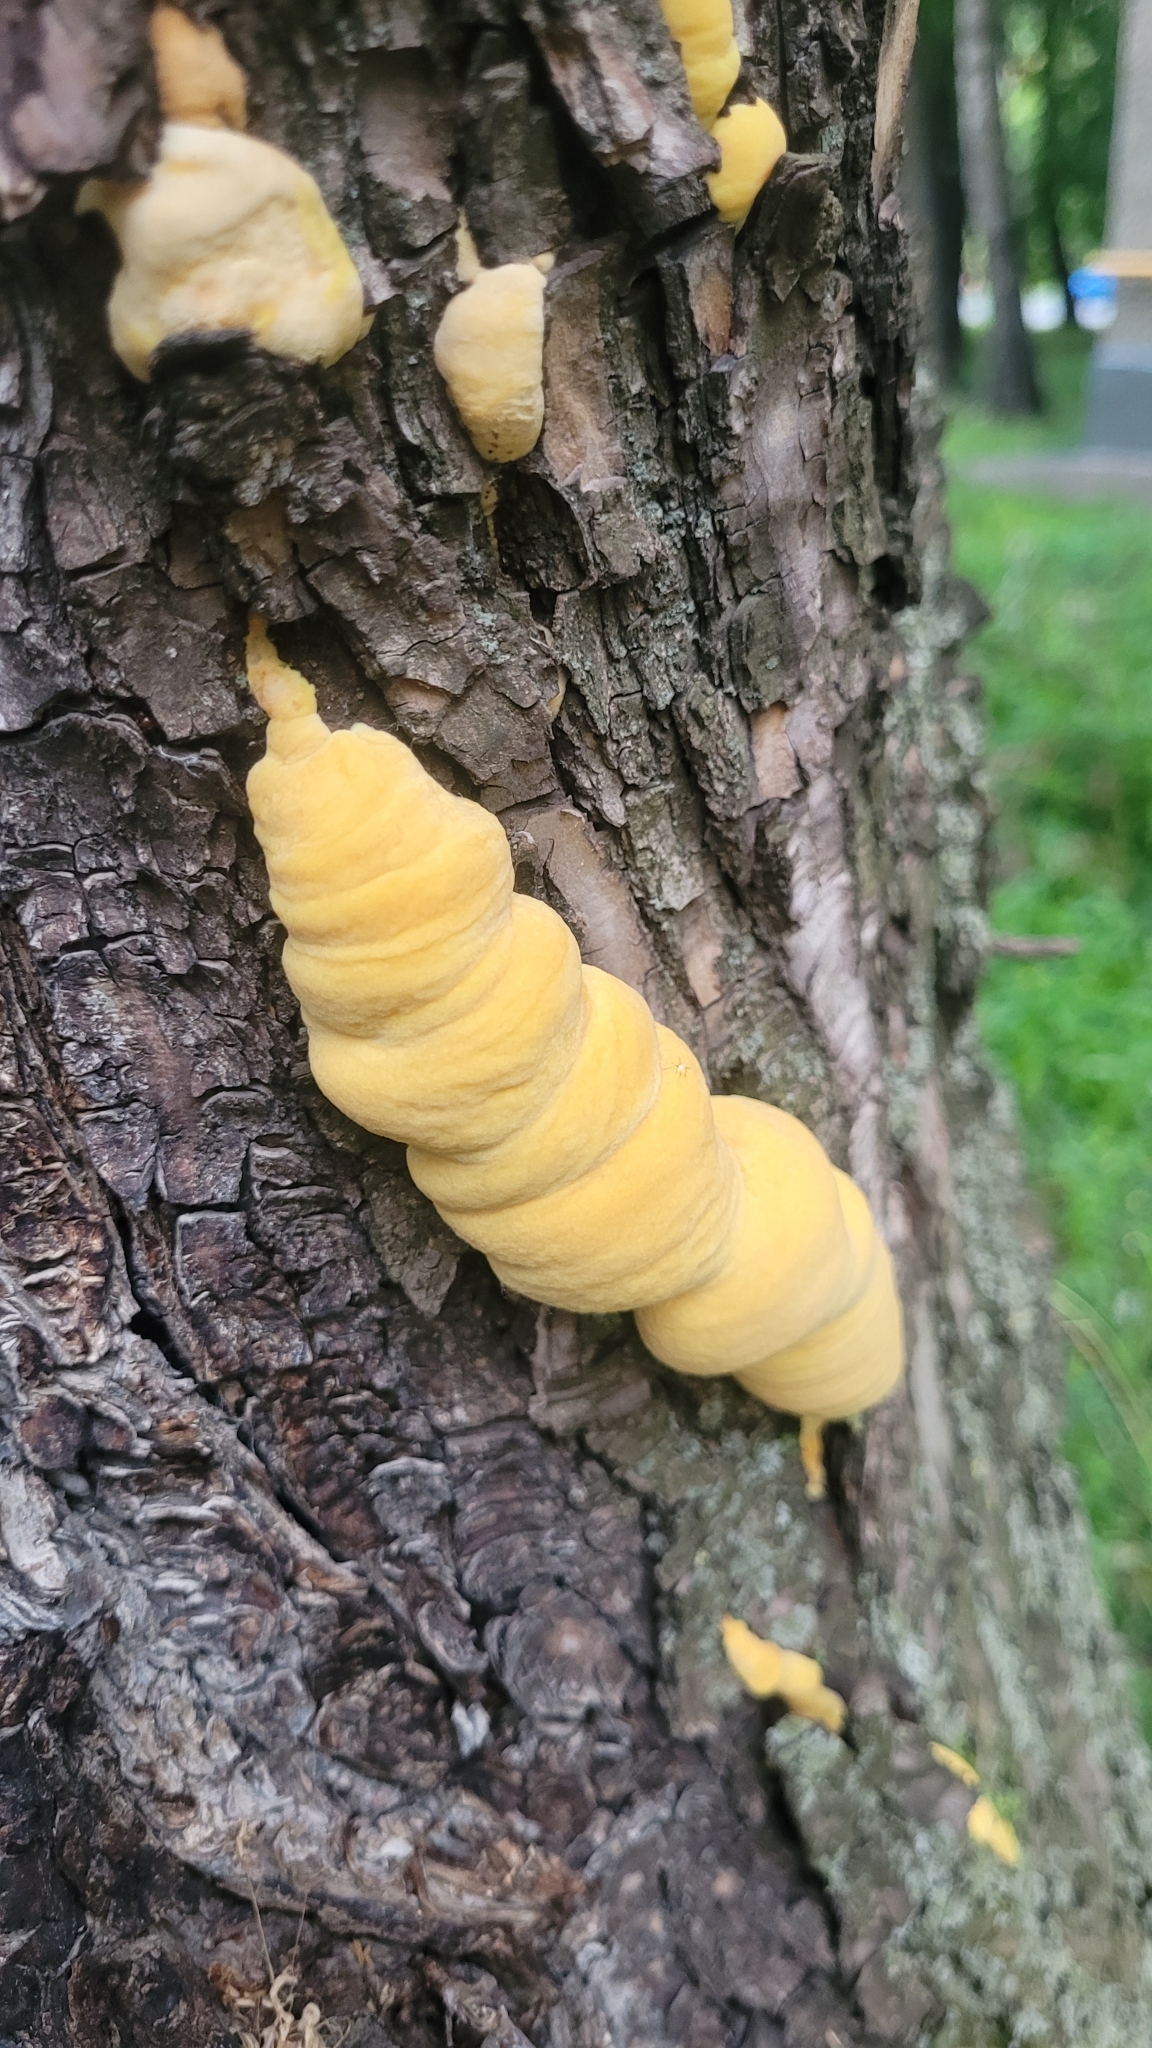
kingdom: Fungi
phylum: Basidiomycota
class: Agaricomycetes
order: Polyporales
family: Laetiporaceae
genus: Laetiporus
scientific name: Laetiporus sulphureus
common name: Chicken of the woods
